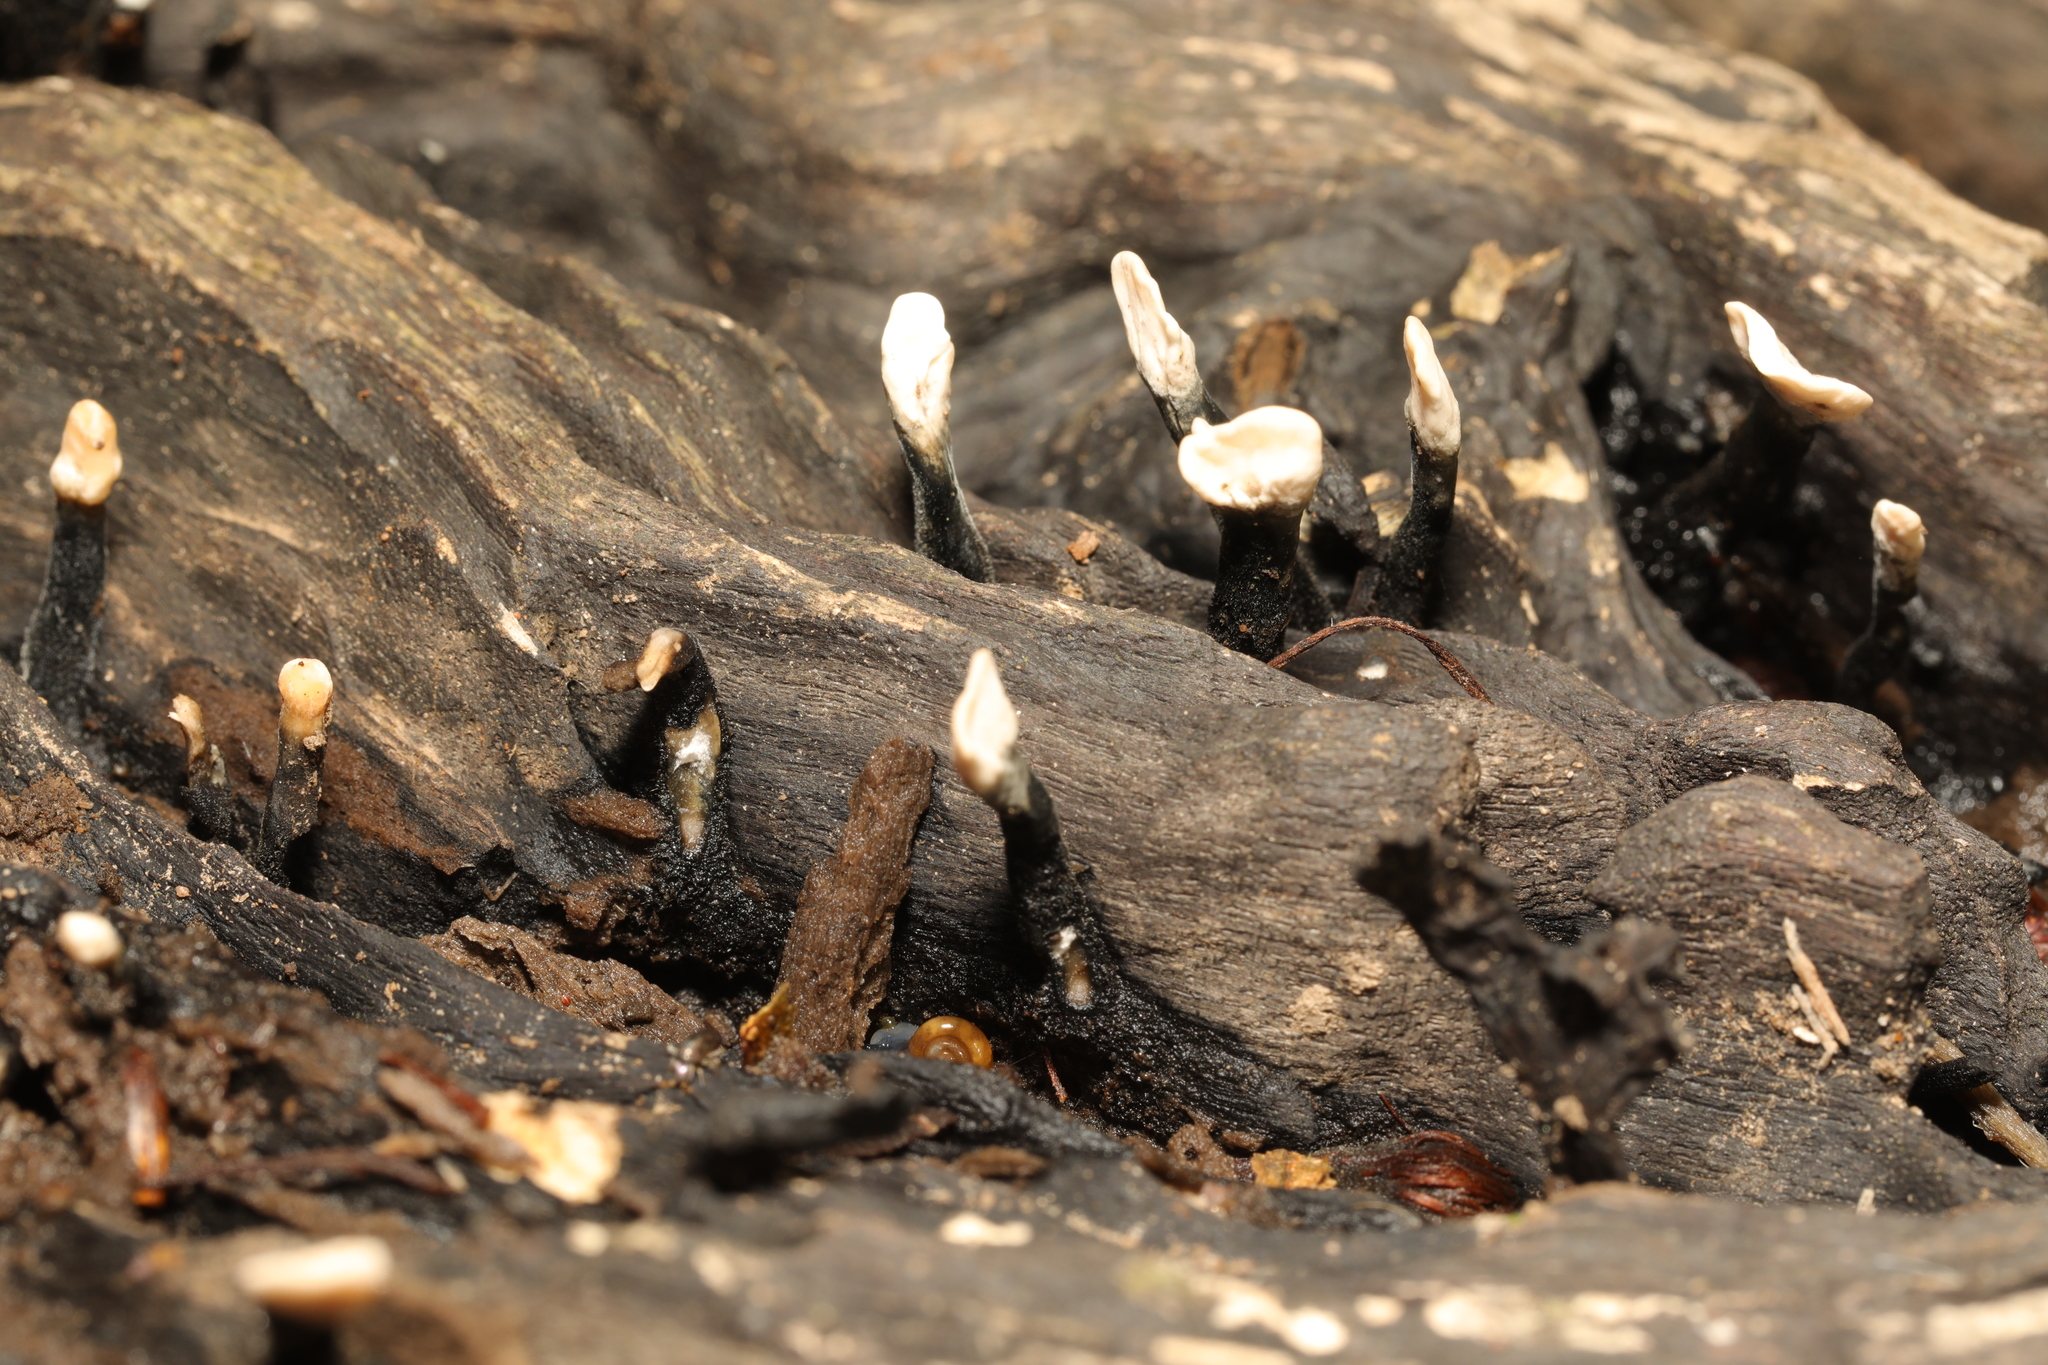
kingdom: Fungi
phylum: Ascomycota
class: Sordariomycetes
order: Xylariales
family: Xylariaceae
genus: Xylaria
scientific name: Xylaria hypoxylon
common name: Candle-snuff fungus
